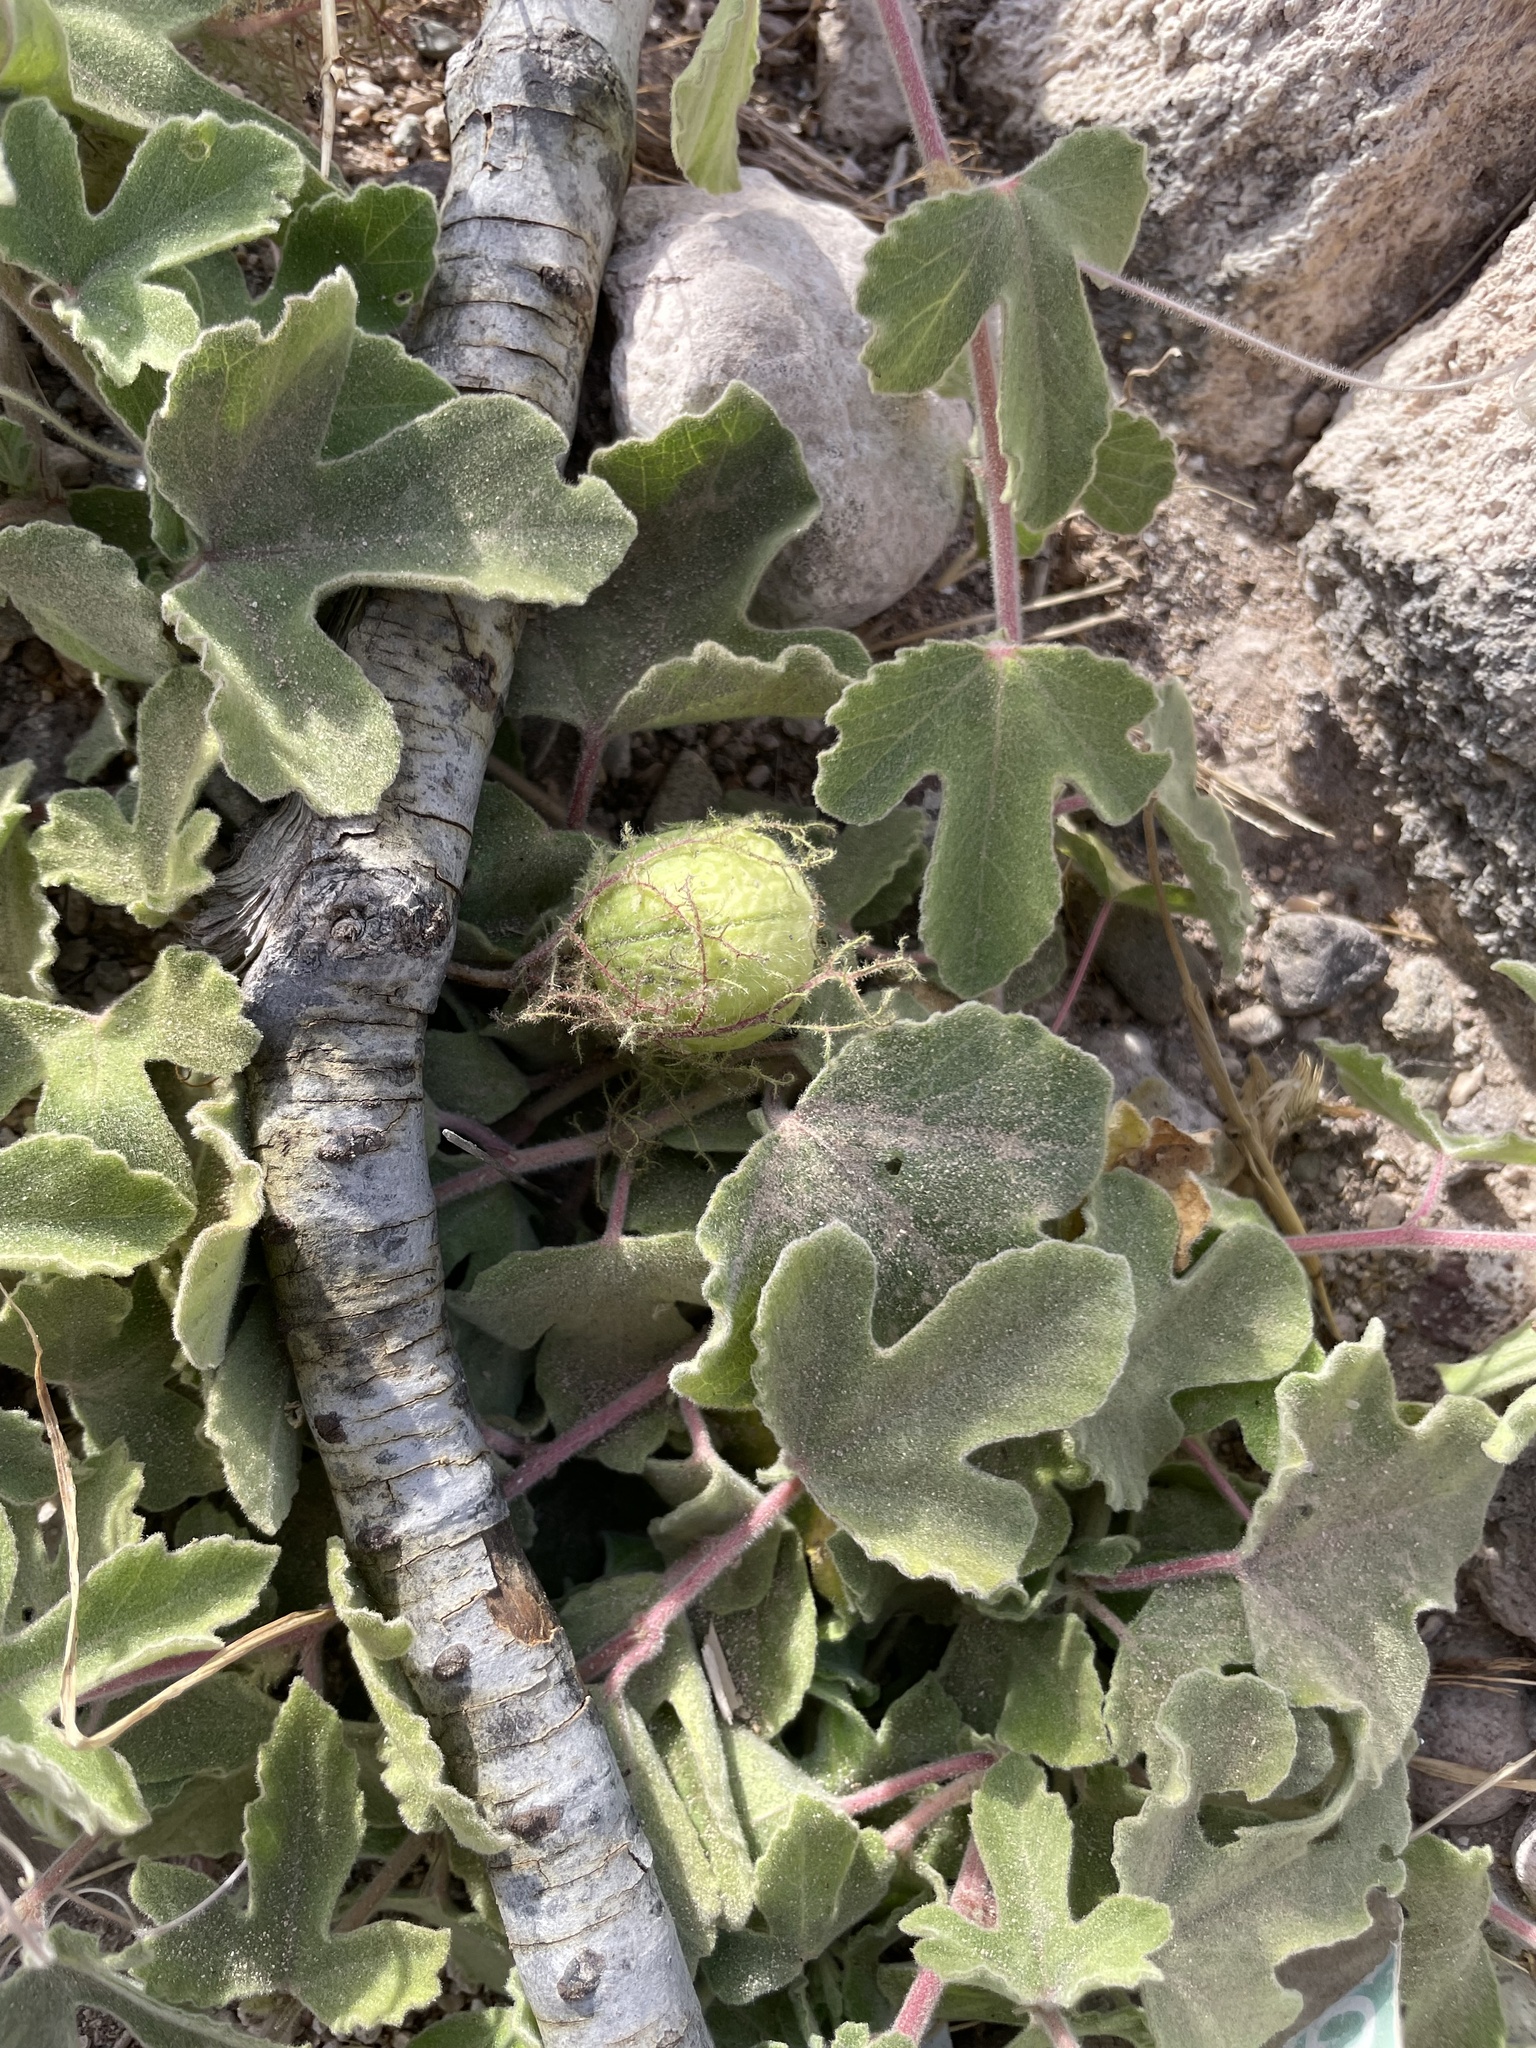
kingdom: Plantae
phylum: Tracheophyta
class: Magnoliopsida
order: Malpighiales
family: Passifloraceae
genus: Passiflora
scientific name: Passiflora arida
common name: Desert passionflower
